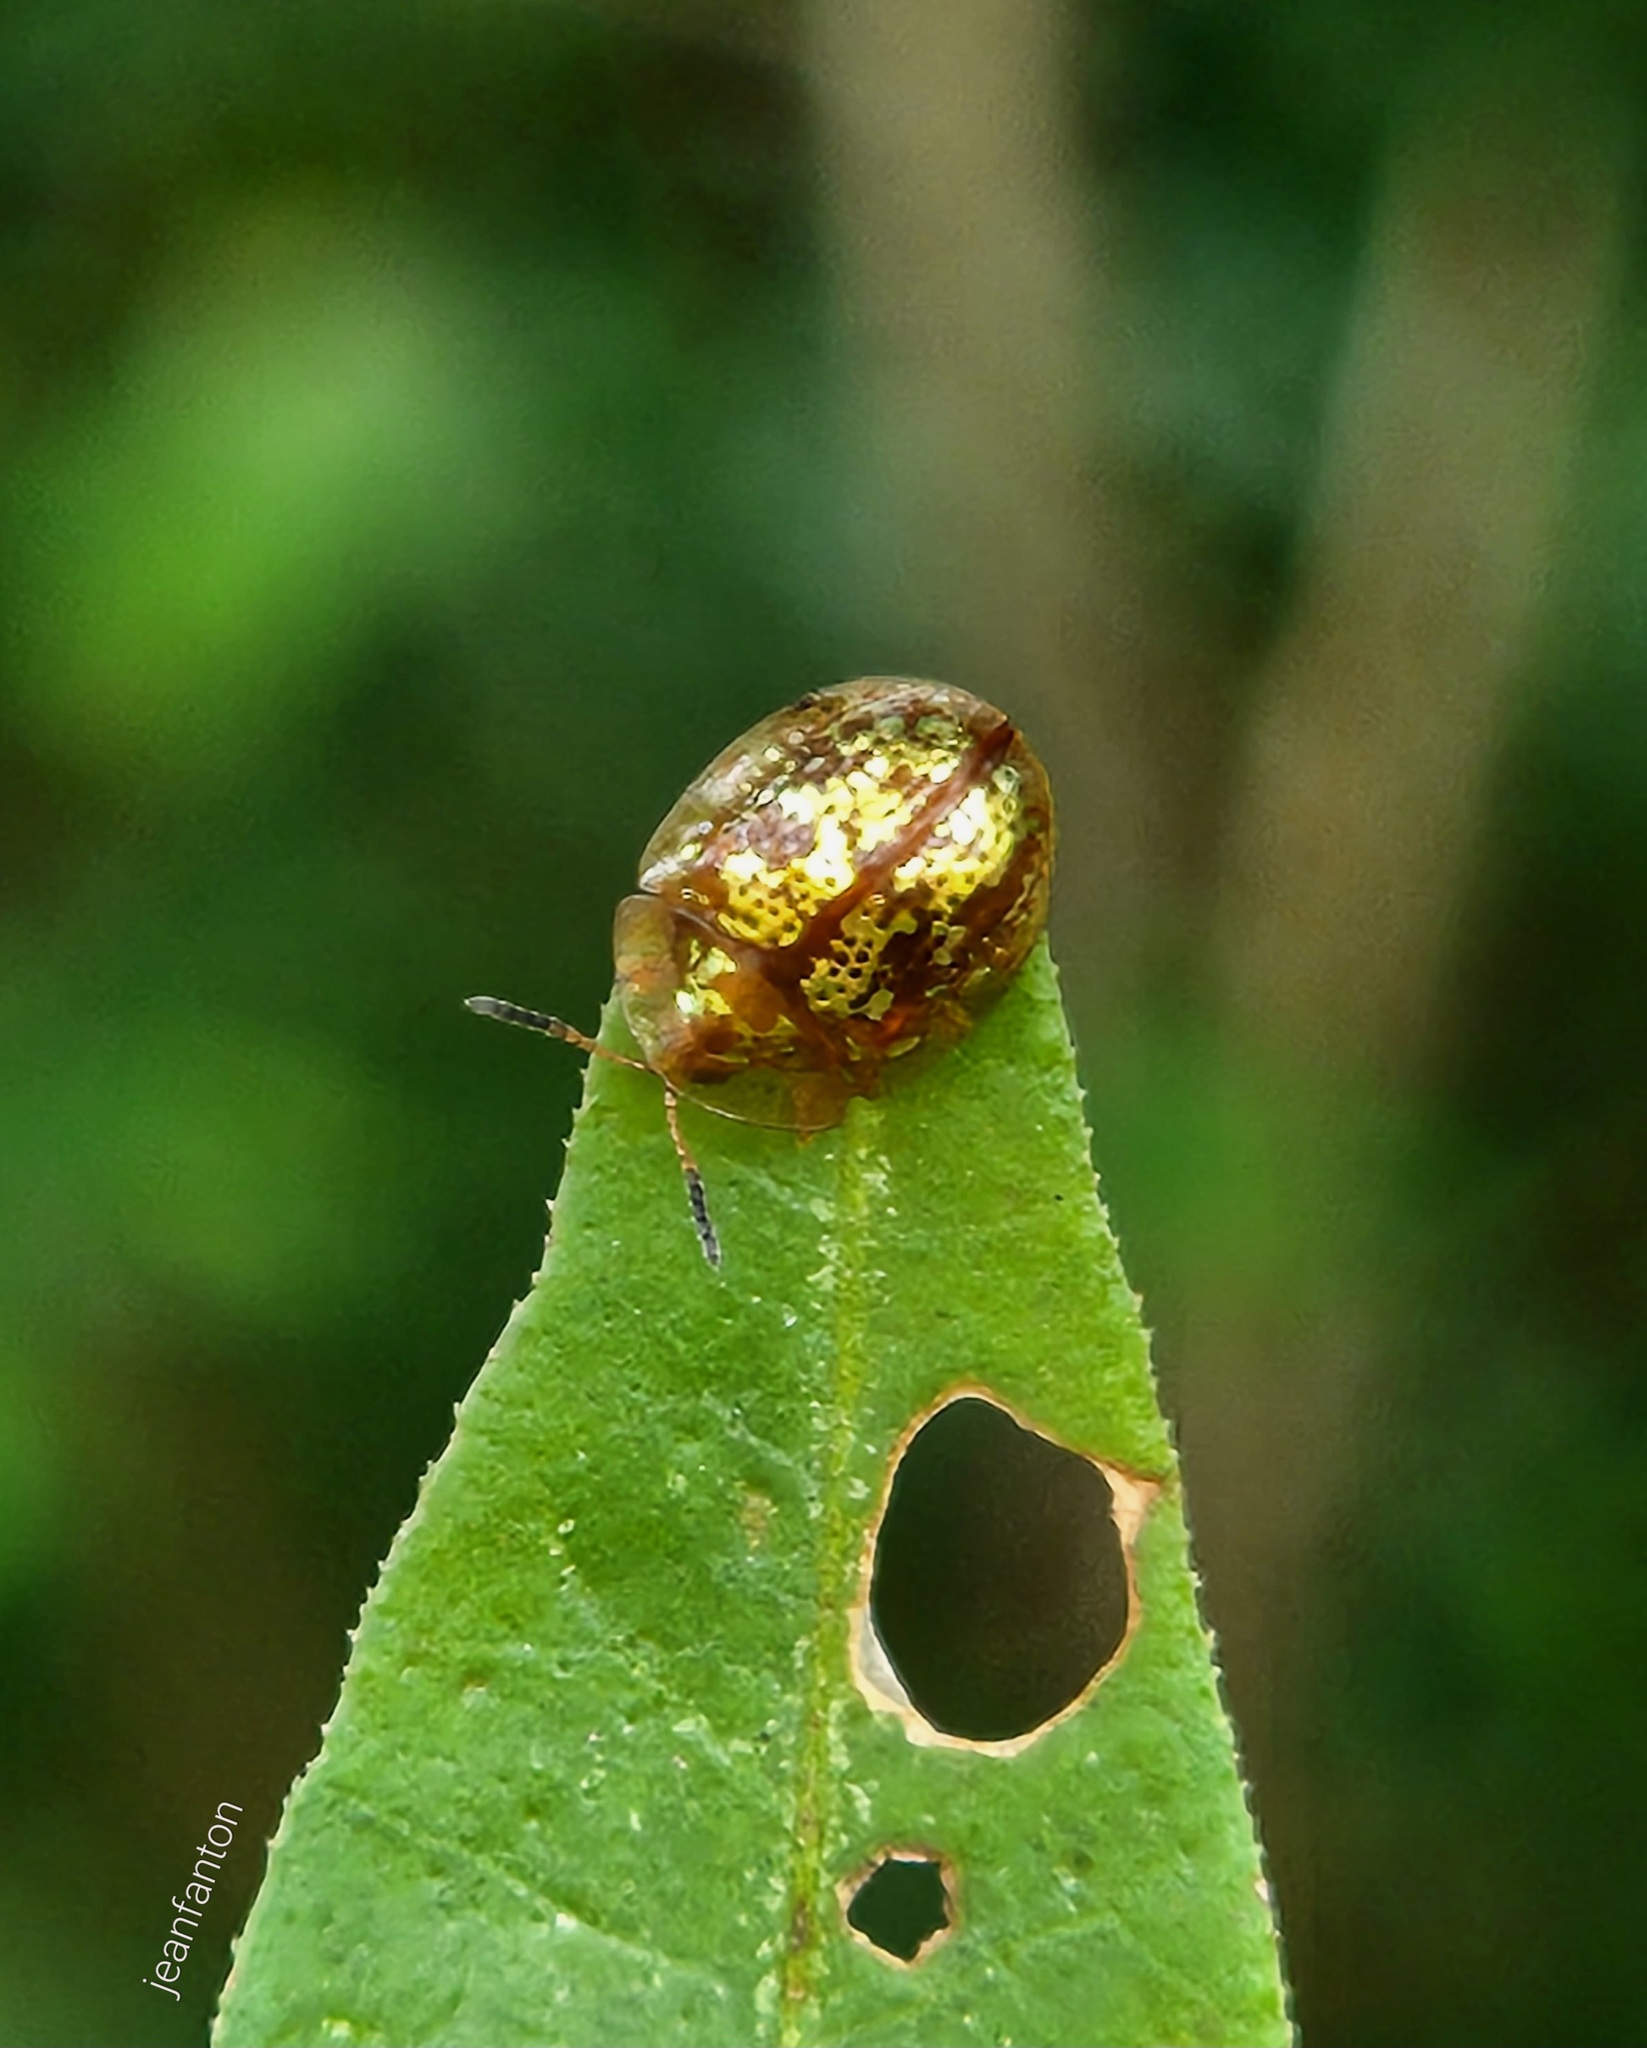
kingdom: Animalia
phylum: Arthropoda
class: Insecta
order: Coleoptera
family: Chrysomelidae
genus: Agroiconota
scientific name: Agroiconota inedita
